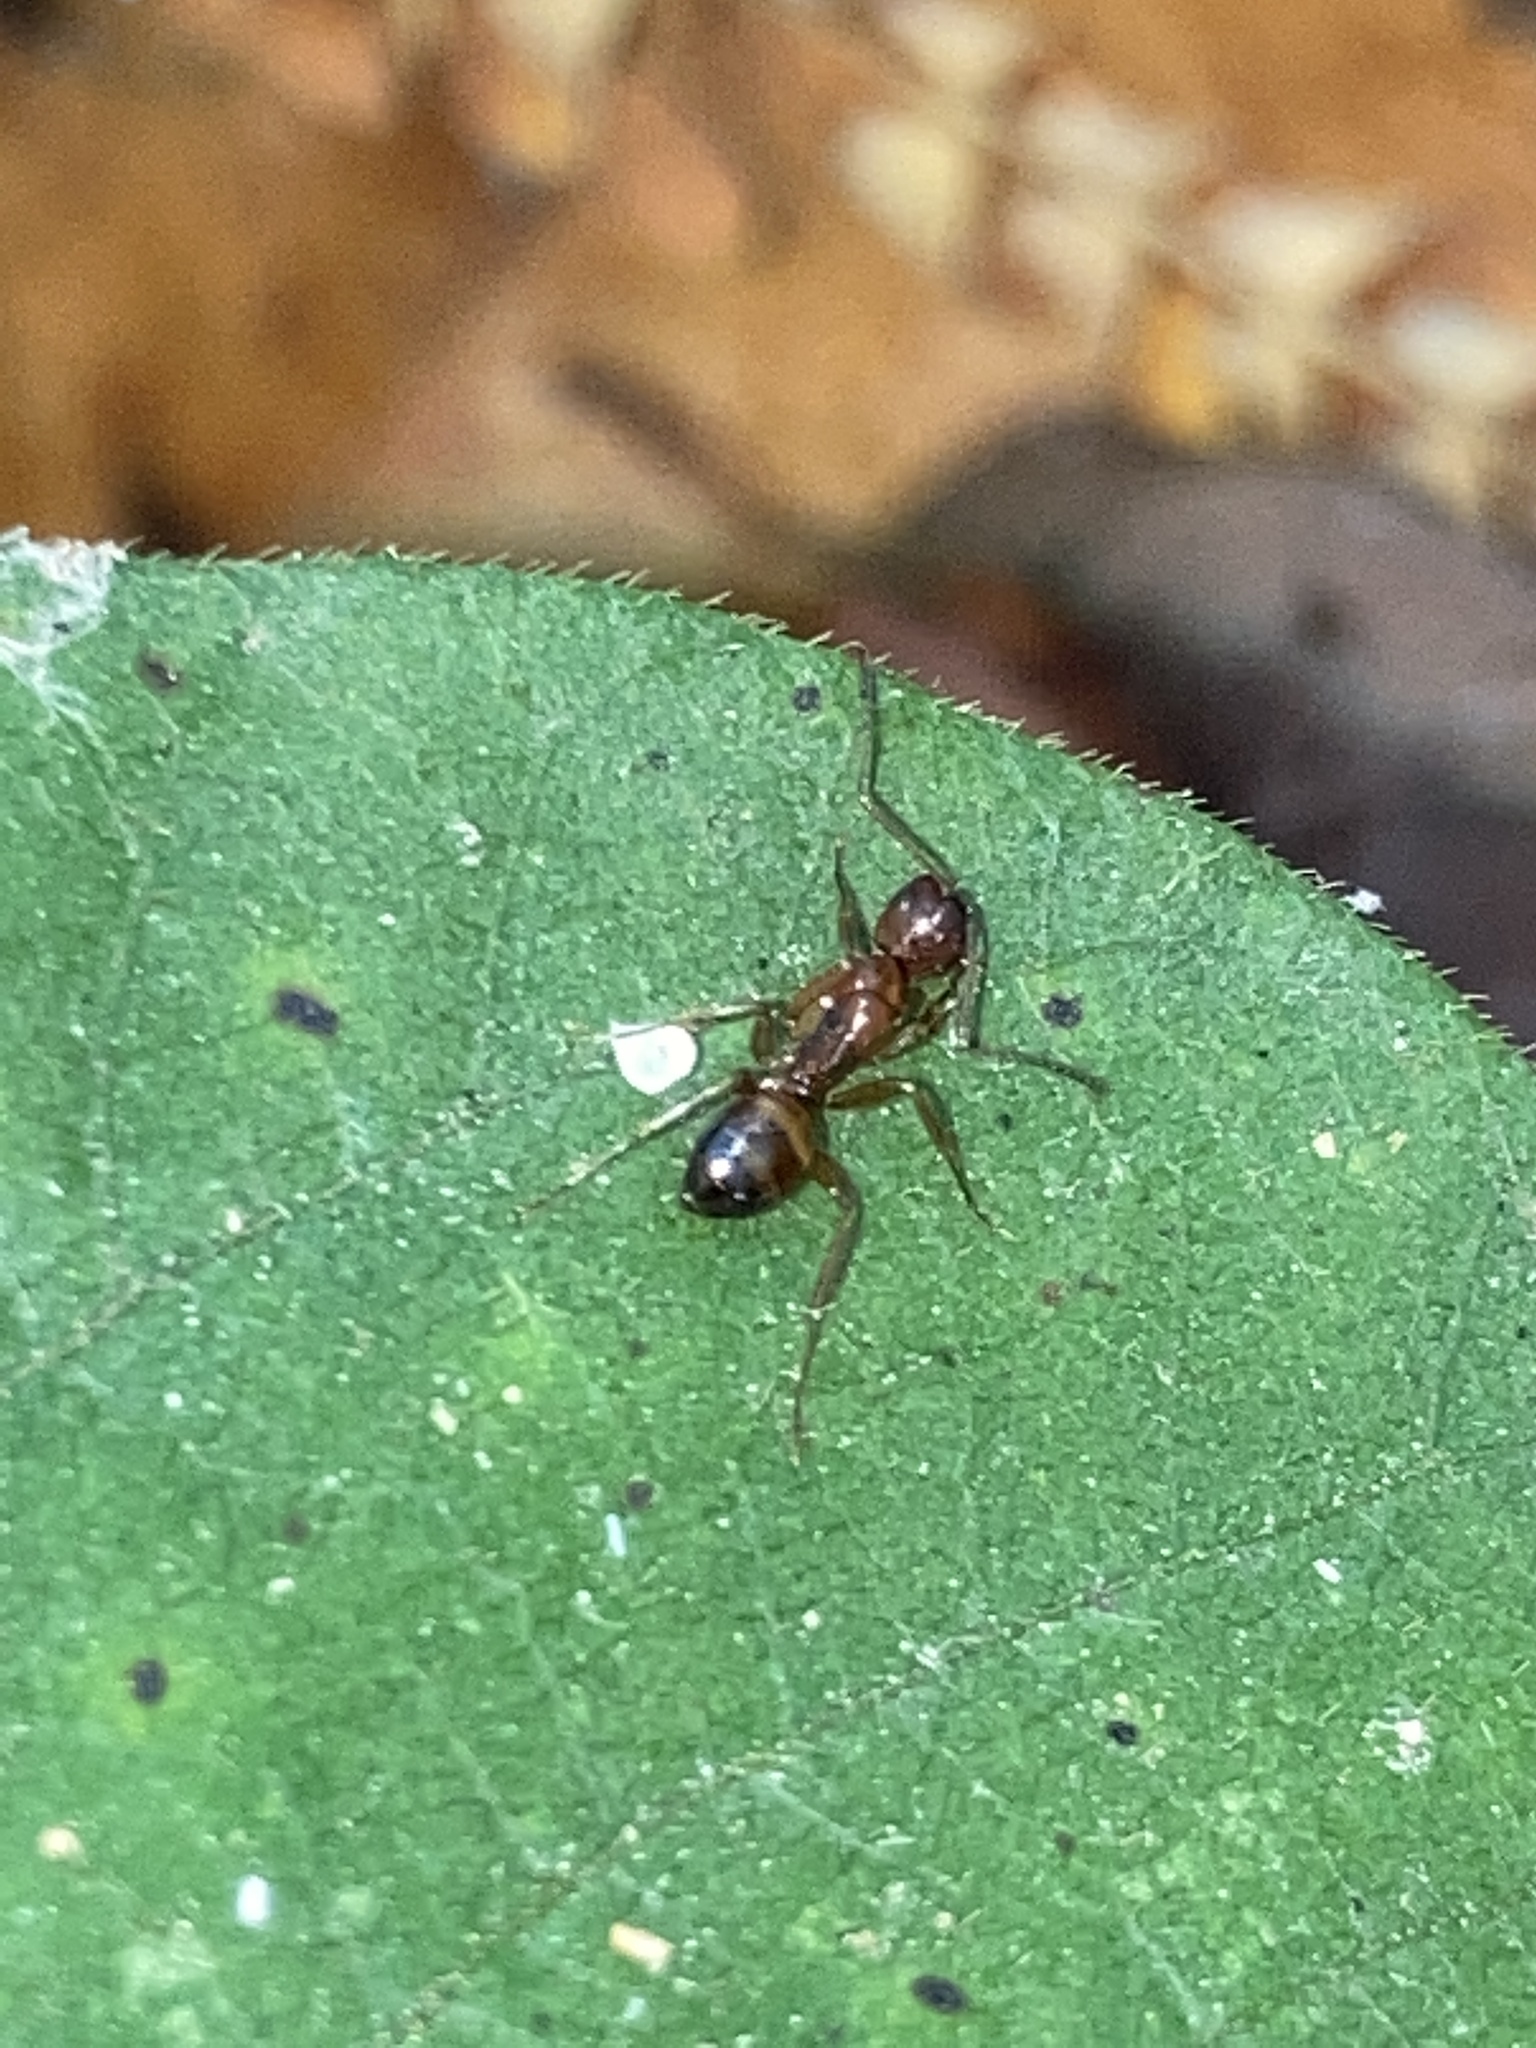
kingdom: Animalia
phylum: Arthropoda
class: Insecta
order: Hymenoptera
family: Formicidae
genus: Camponotus
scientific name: Camponotus subbarbatus
